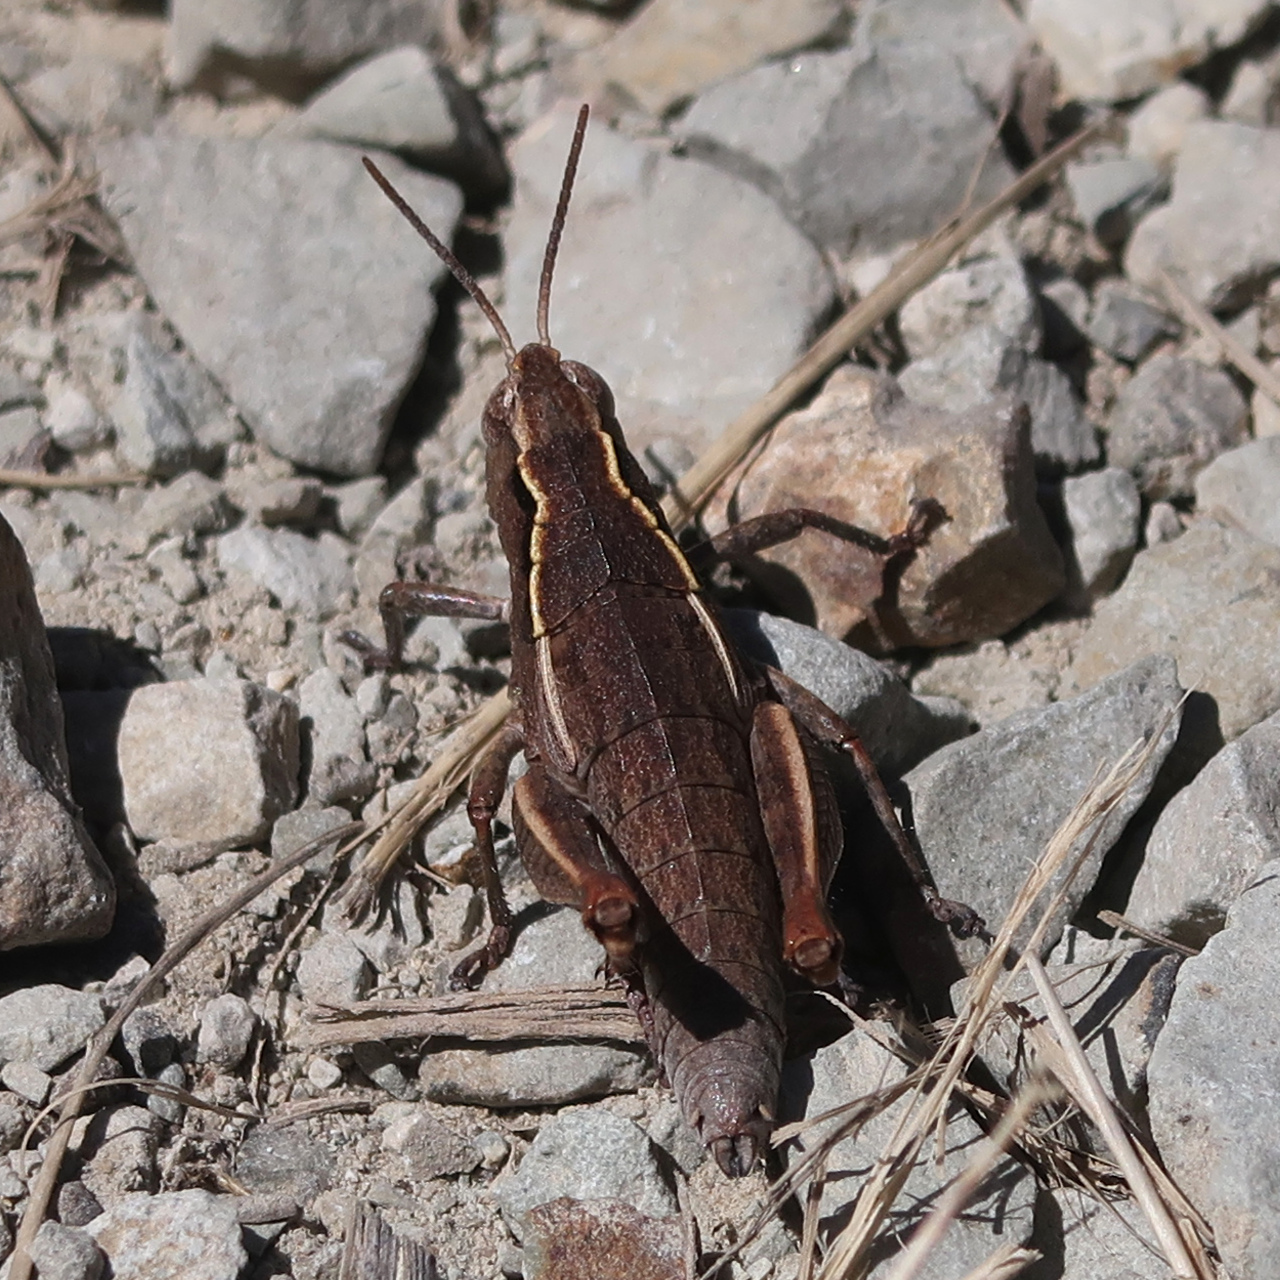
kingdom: Animalia
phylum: Arthropoda
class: Insecta
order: Orthoptera
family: Acrididae
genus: Tasmaniacris
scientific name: Tasmaniacris tasmaniensis
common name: Tasmanian grasshopper
